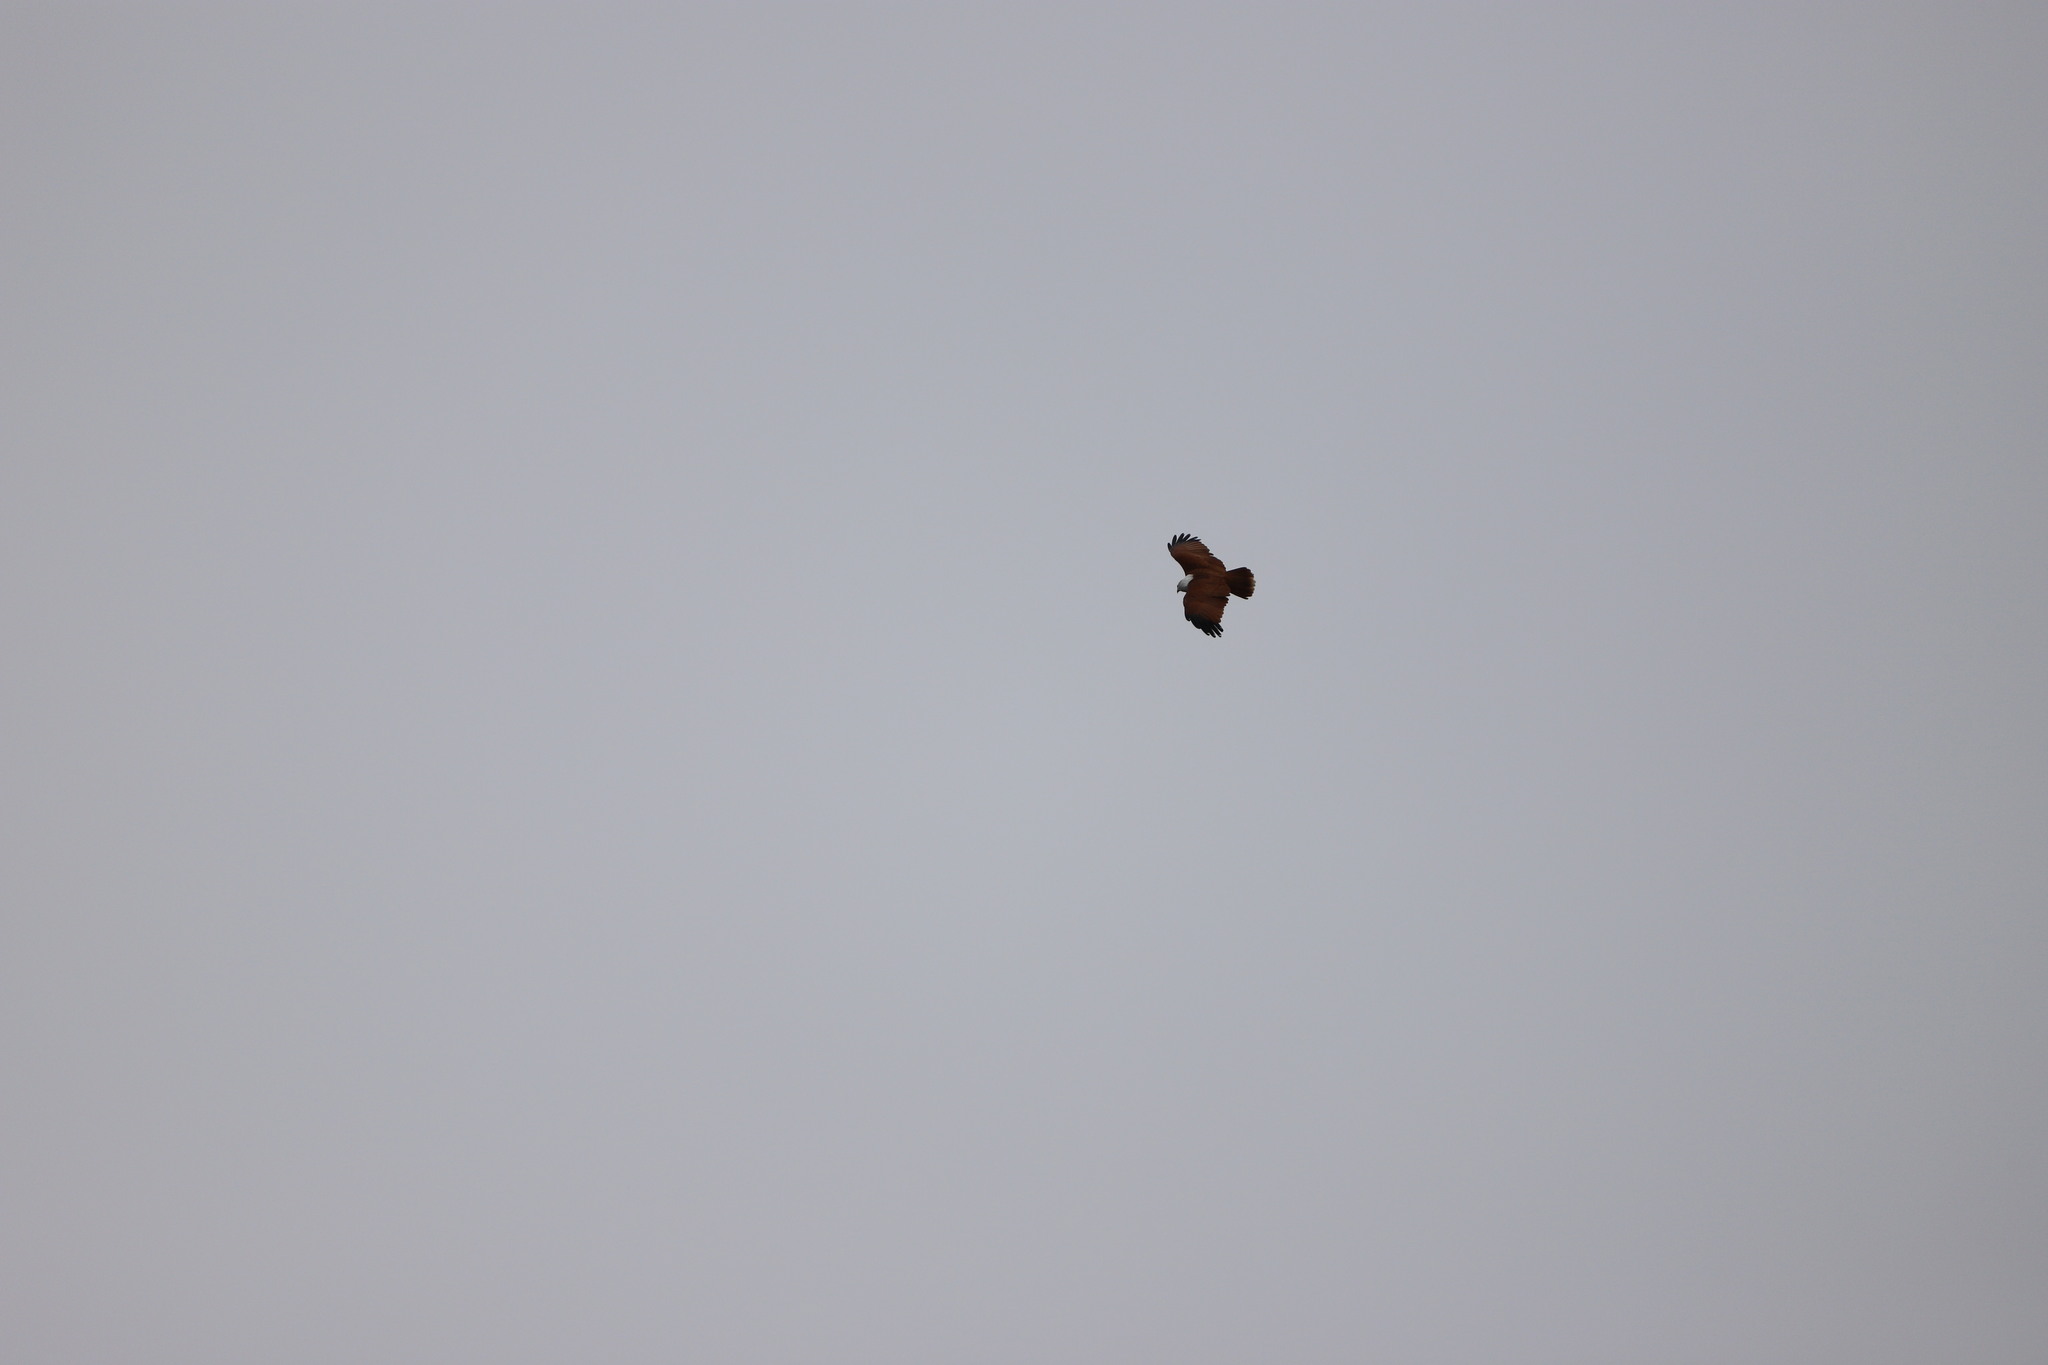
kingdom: Animalia
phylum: Chordata
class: Aves
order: Accipitriformes
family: Accipitridae
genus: Haliastur
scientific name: Haliastur indus
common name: Brahminy kite
